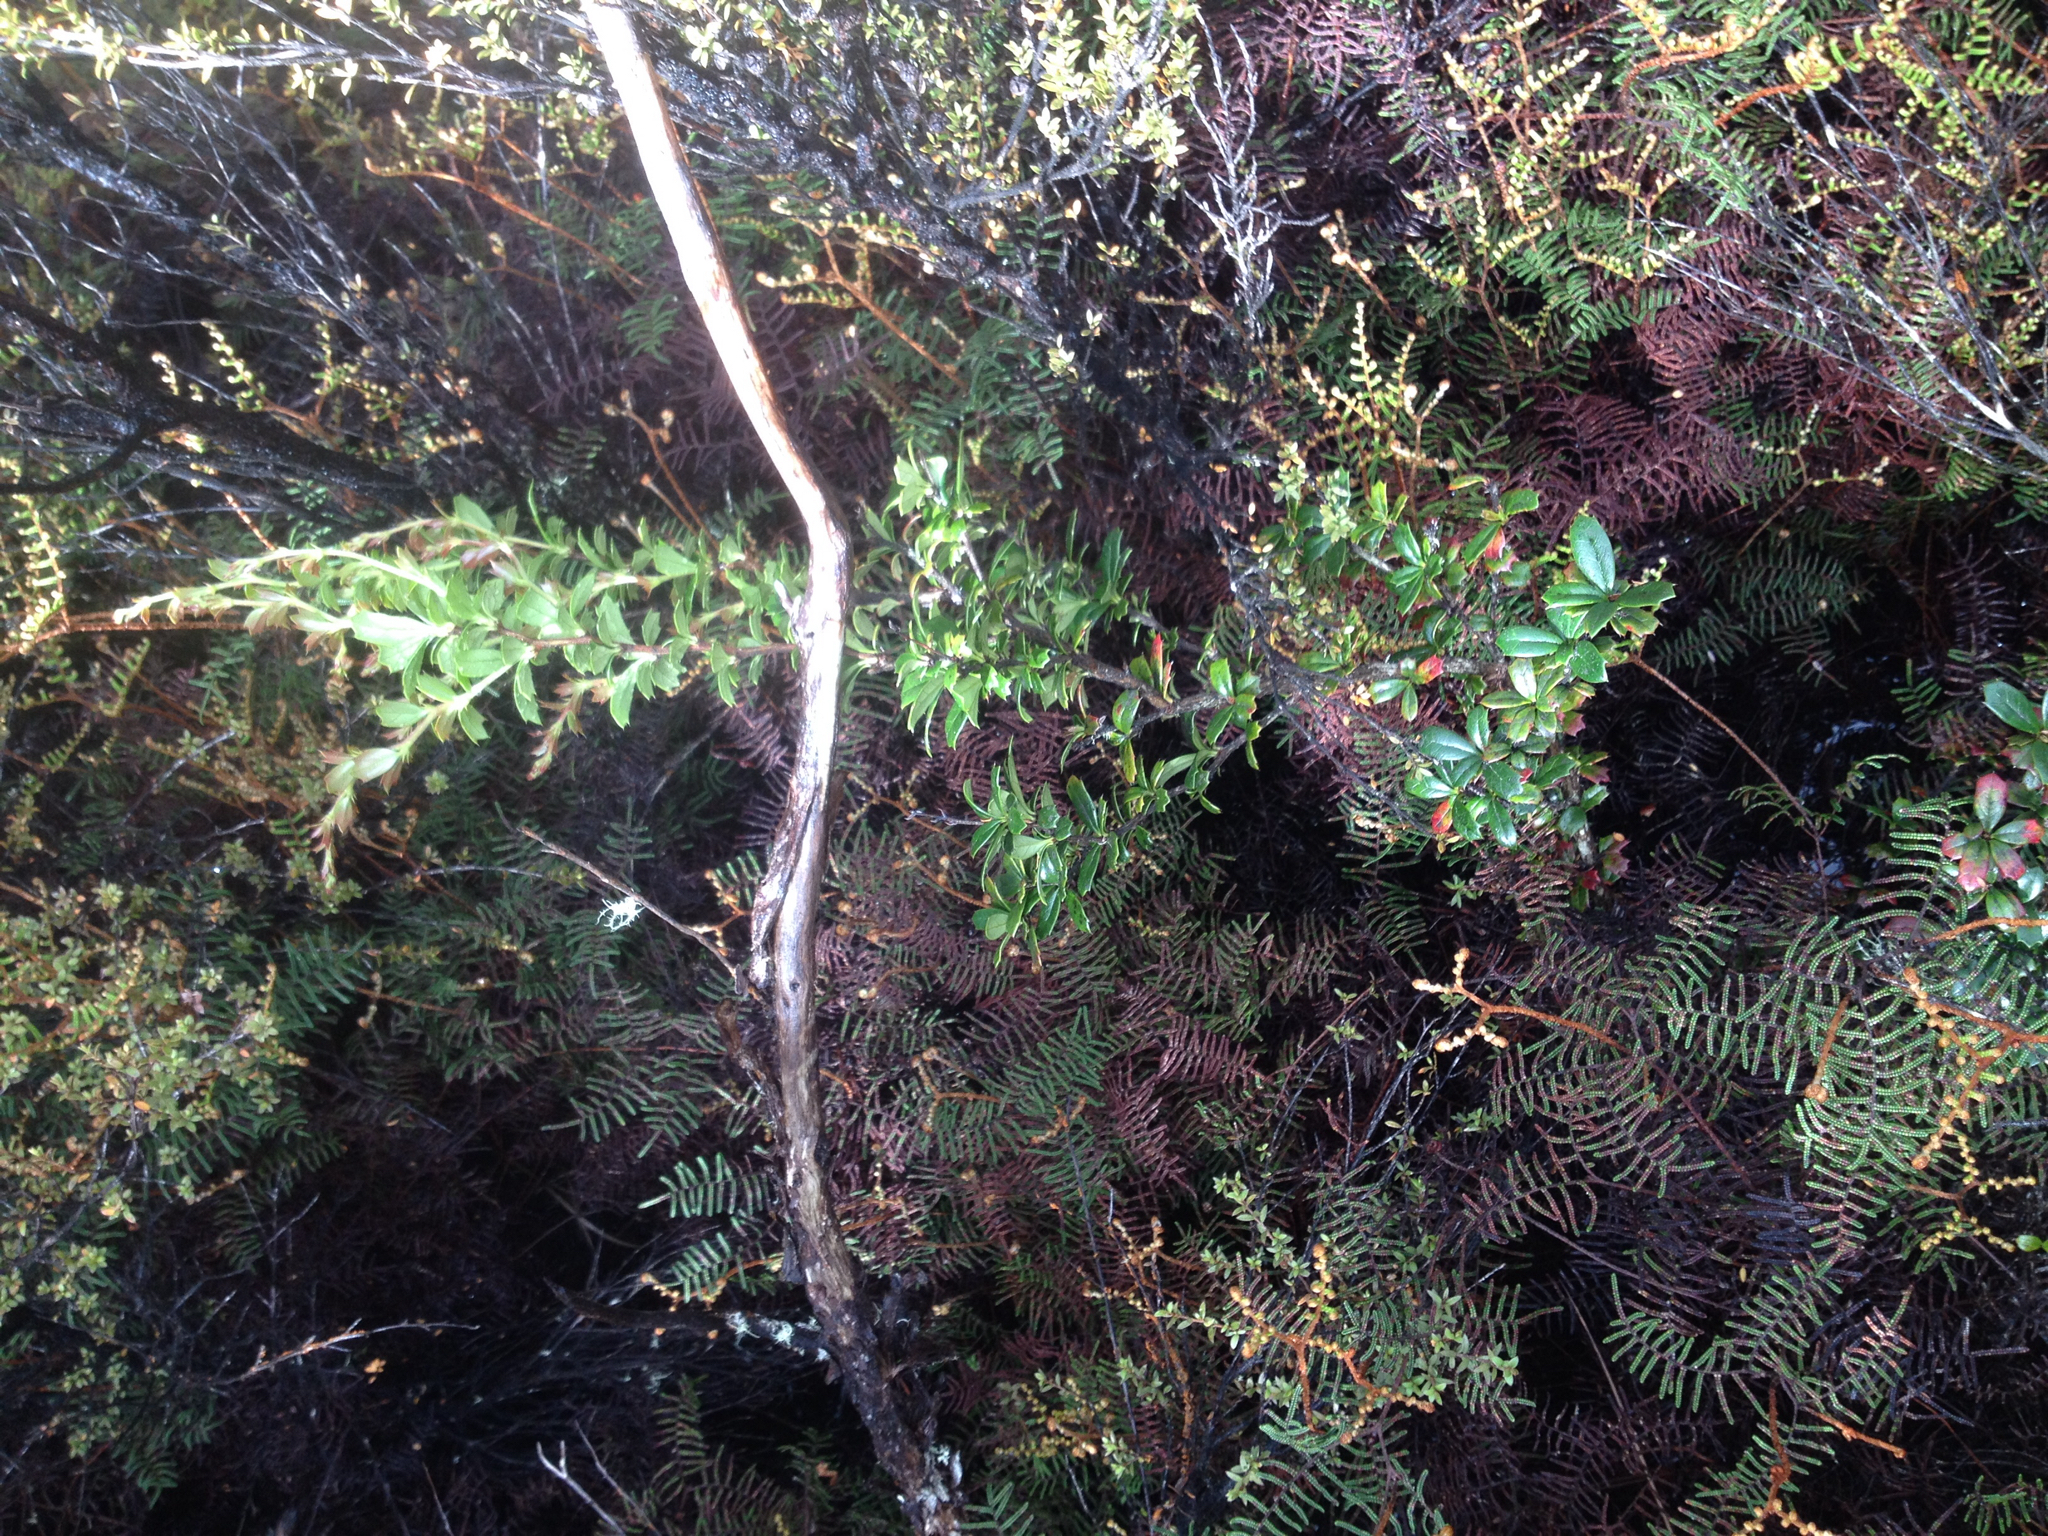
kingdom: Plantae
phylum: Tracheophyta
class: Magnoliopsida
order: Ranunculales
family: Berberidaceae
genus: Berberis
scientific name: Berberis darwinii
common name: Darwin's barberry
